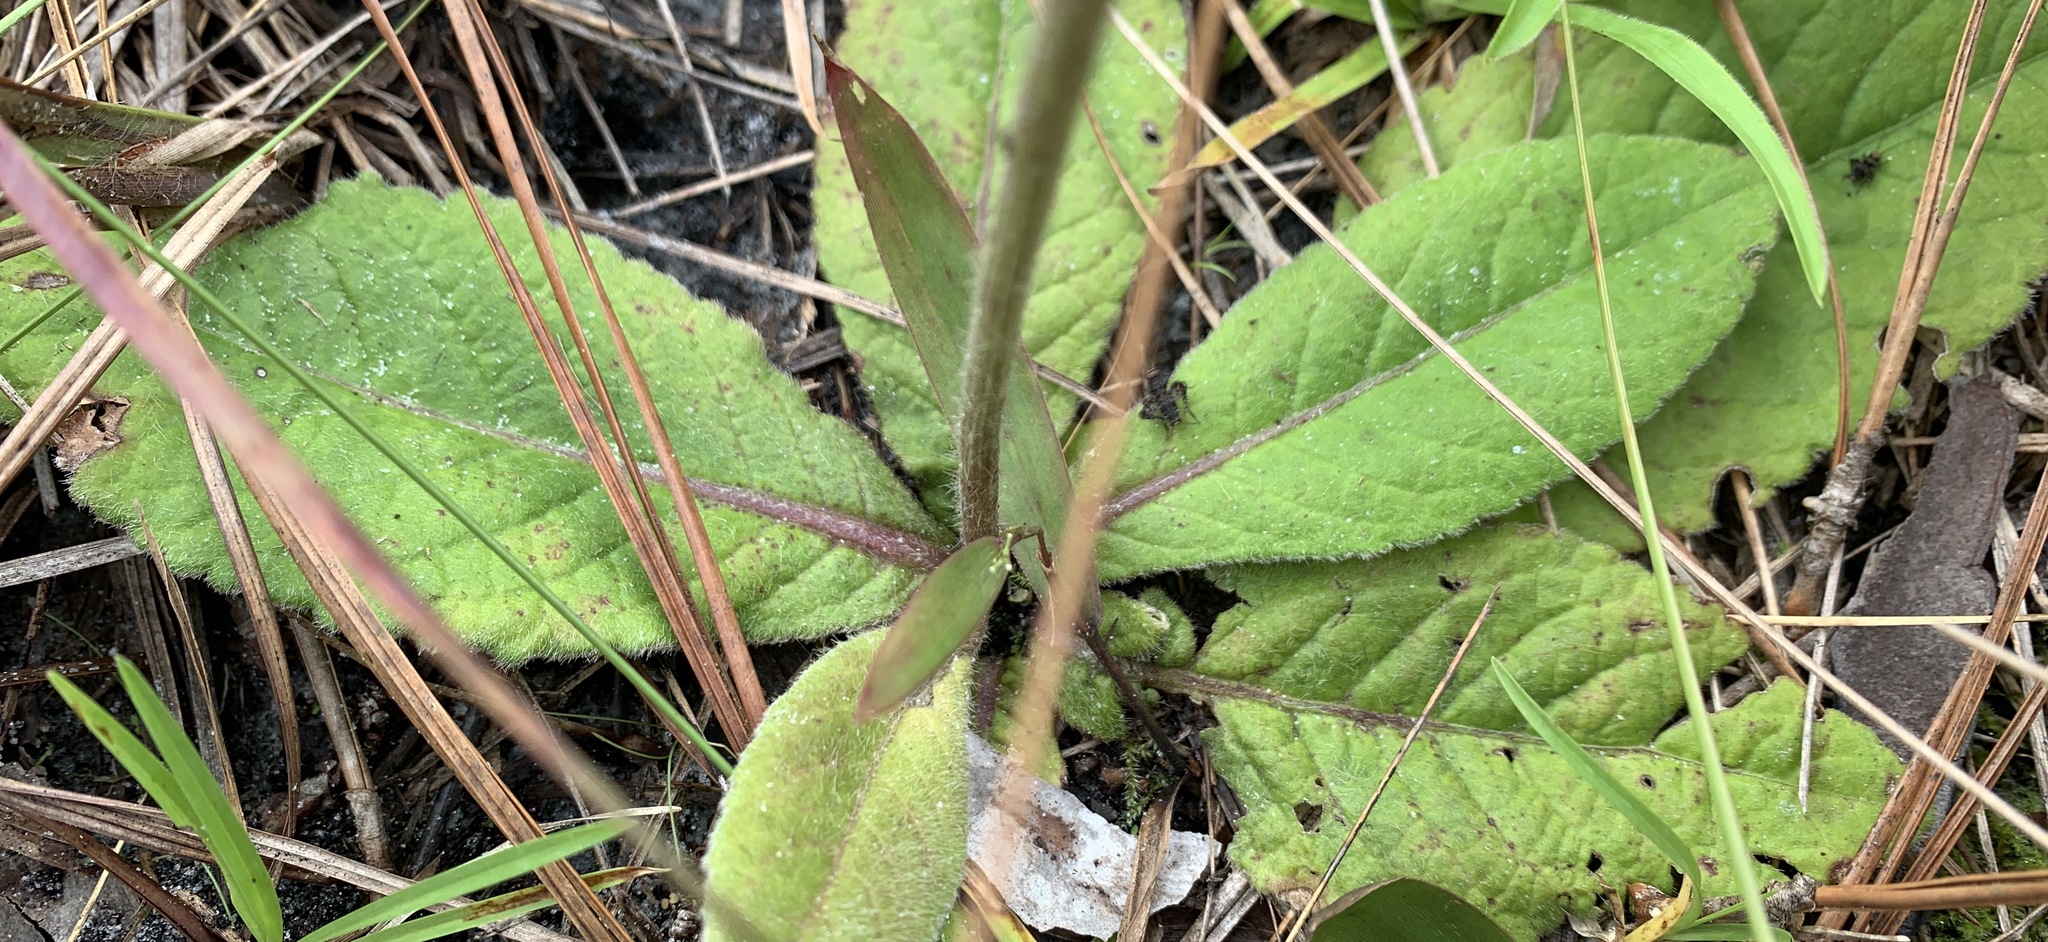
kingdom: Plantae
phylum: Tracheophyta
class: Magnoliopsida
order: Asterales
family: Asteraceae
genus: Elephantopus
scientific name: Elephantopus elatus
